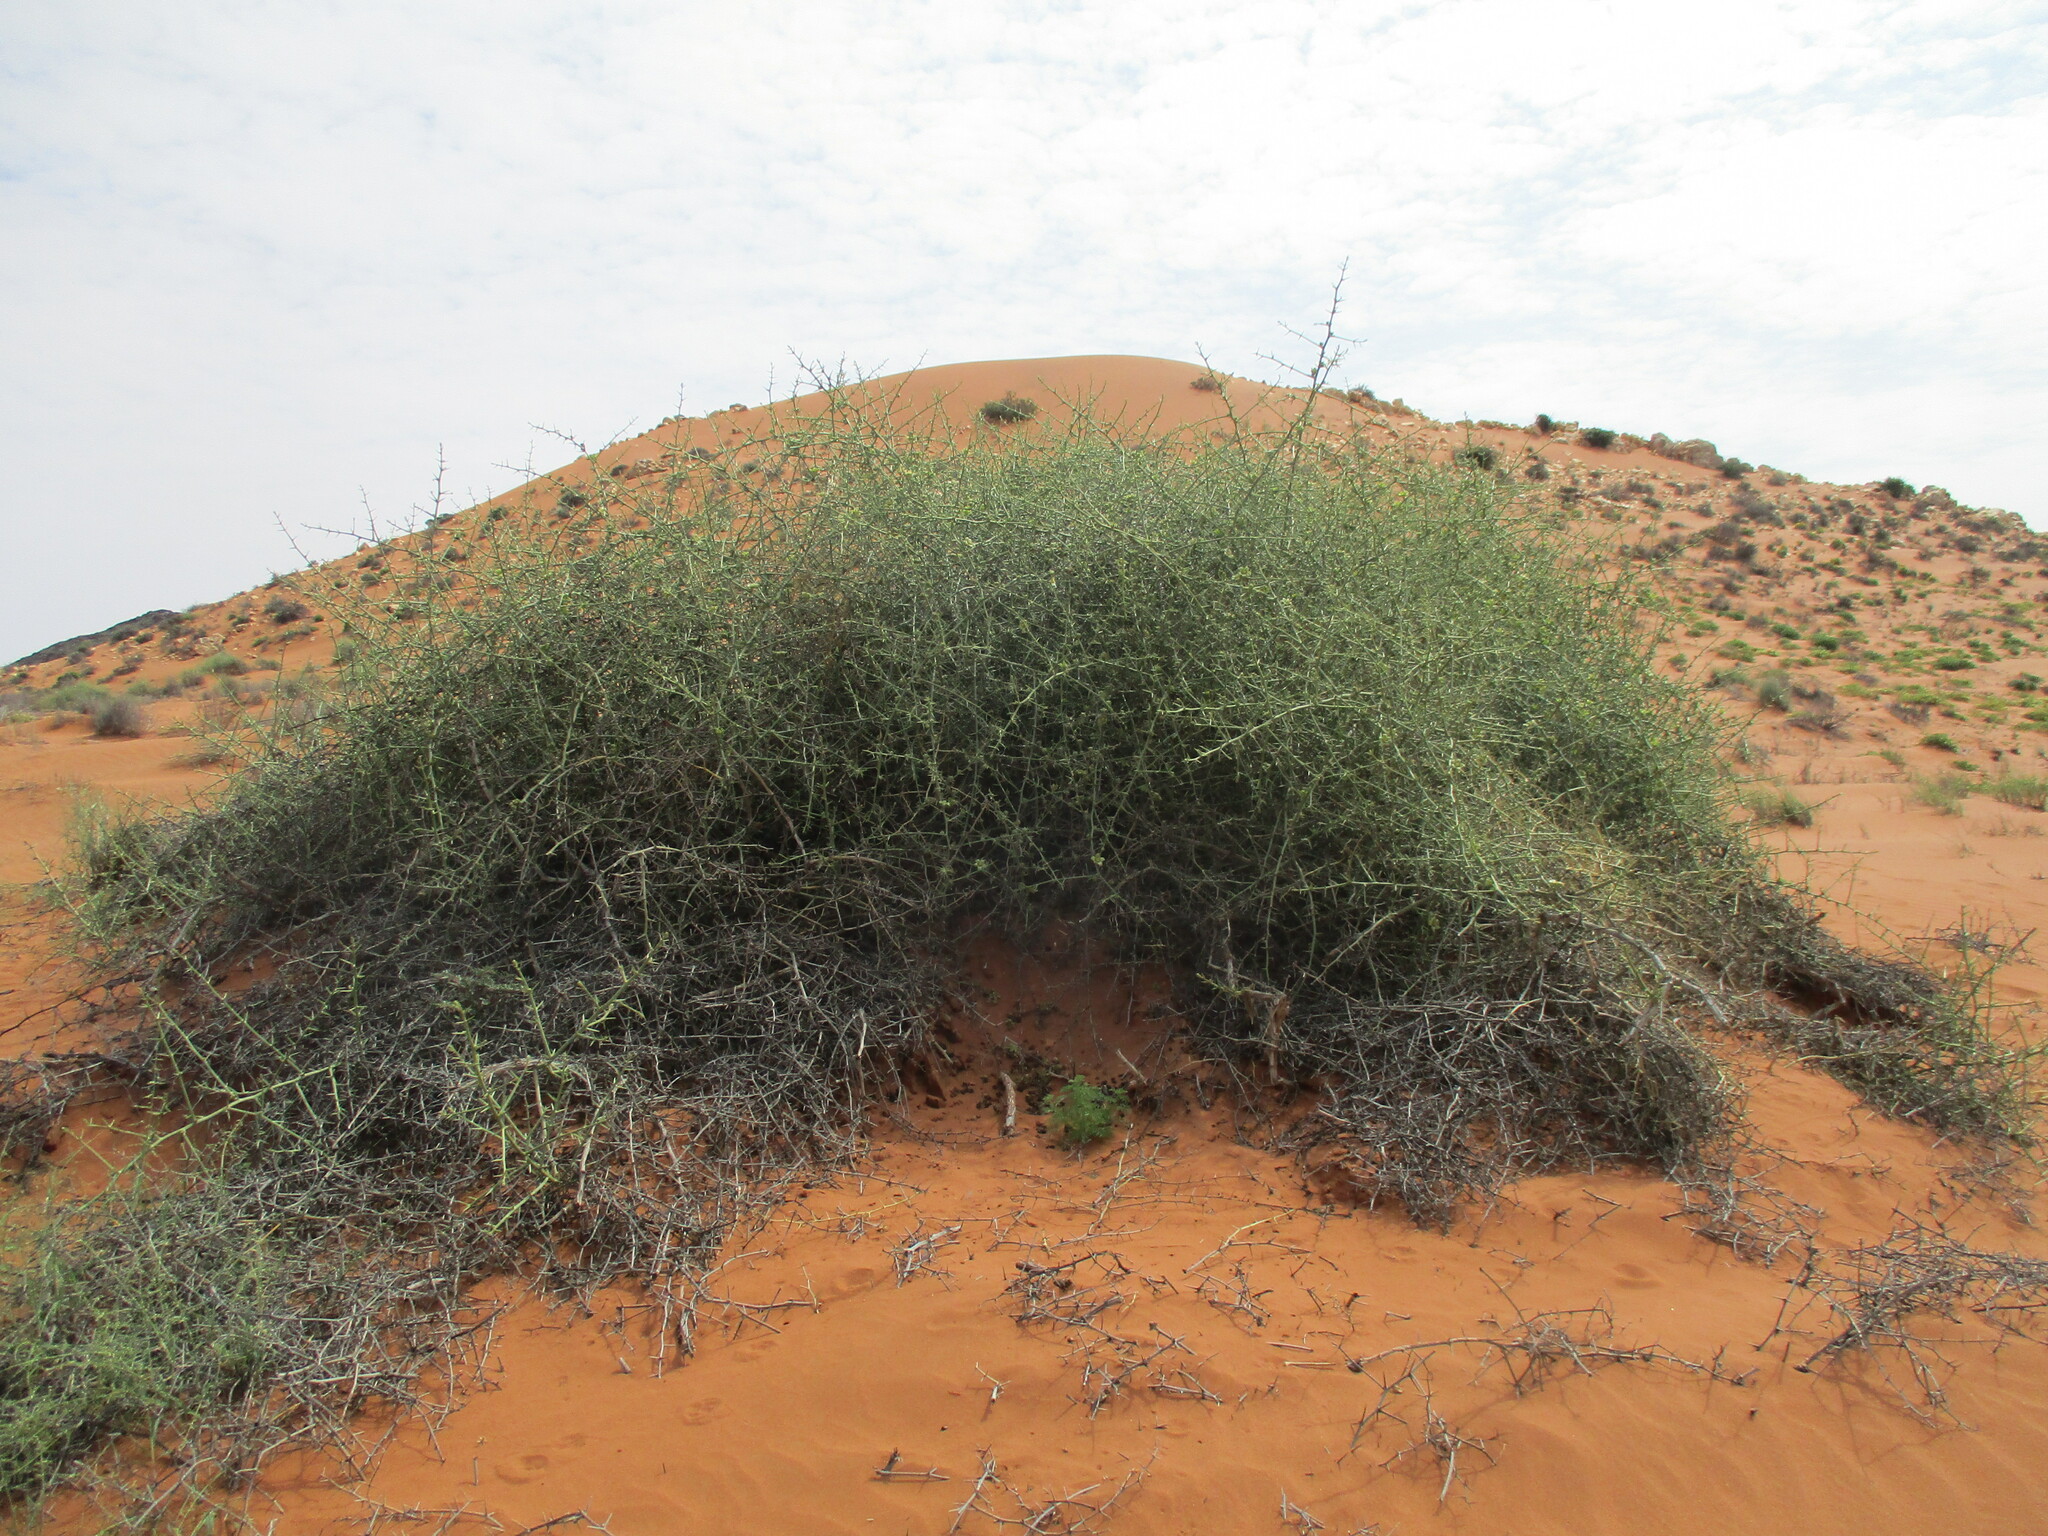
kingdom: Plantae
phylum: Tracheophyta
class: Magnoliopsida
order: Cucurbitales
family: Cucurbitaceae
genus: Acanthosicyos
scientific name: Acanthosicyos horridus
